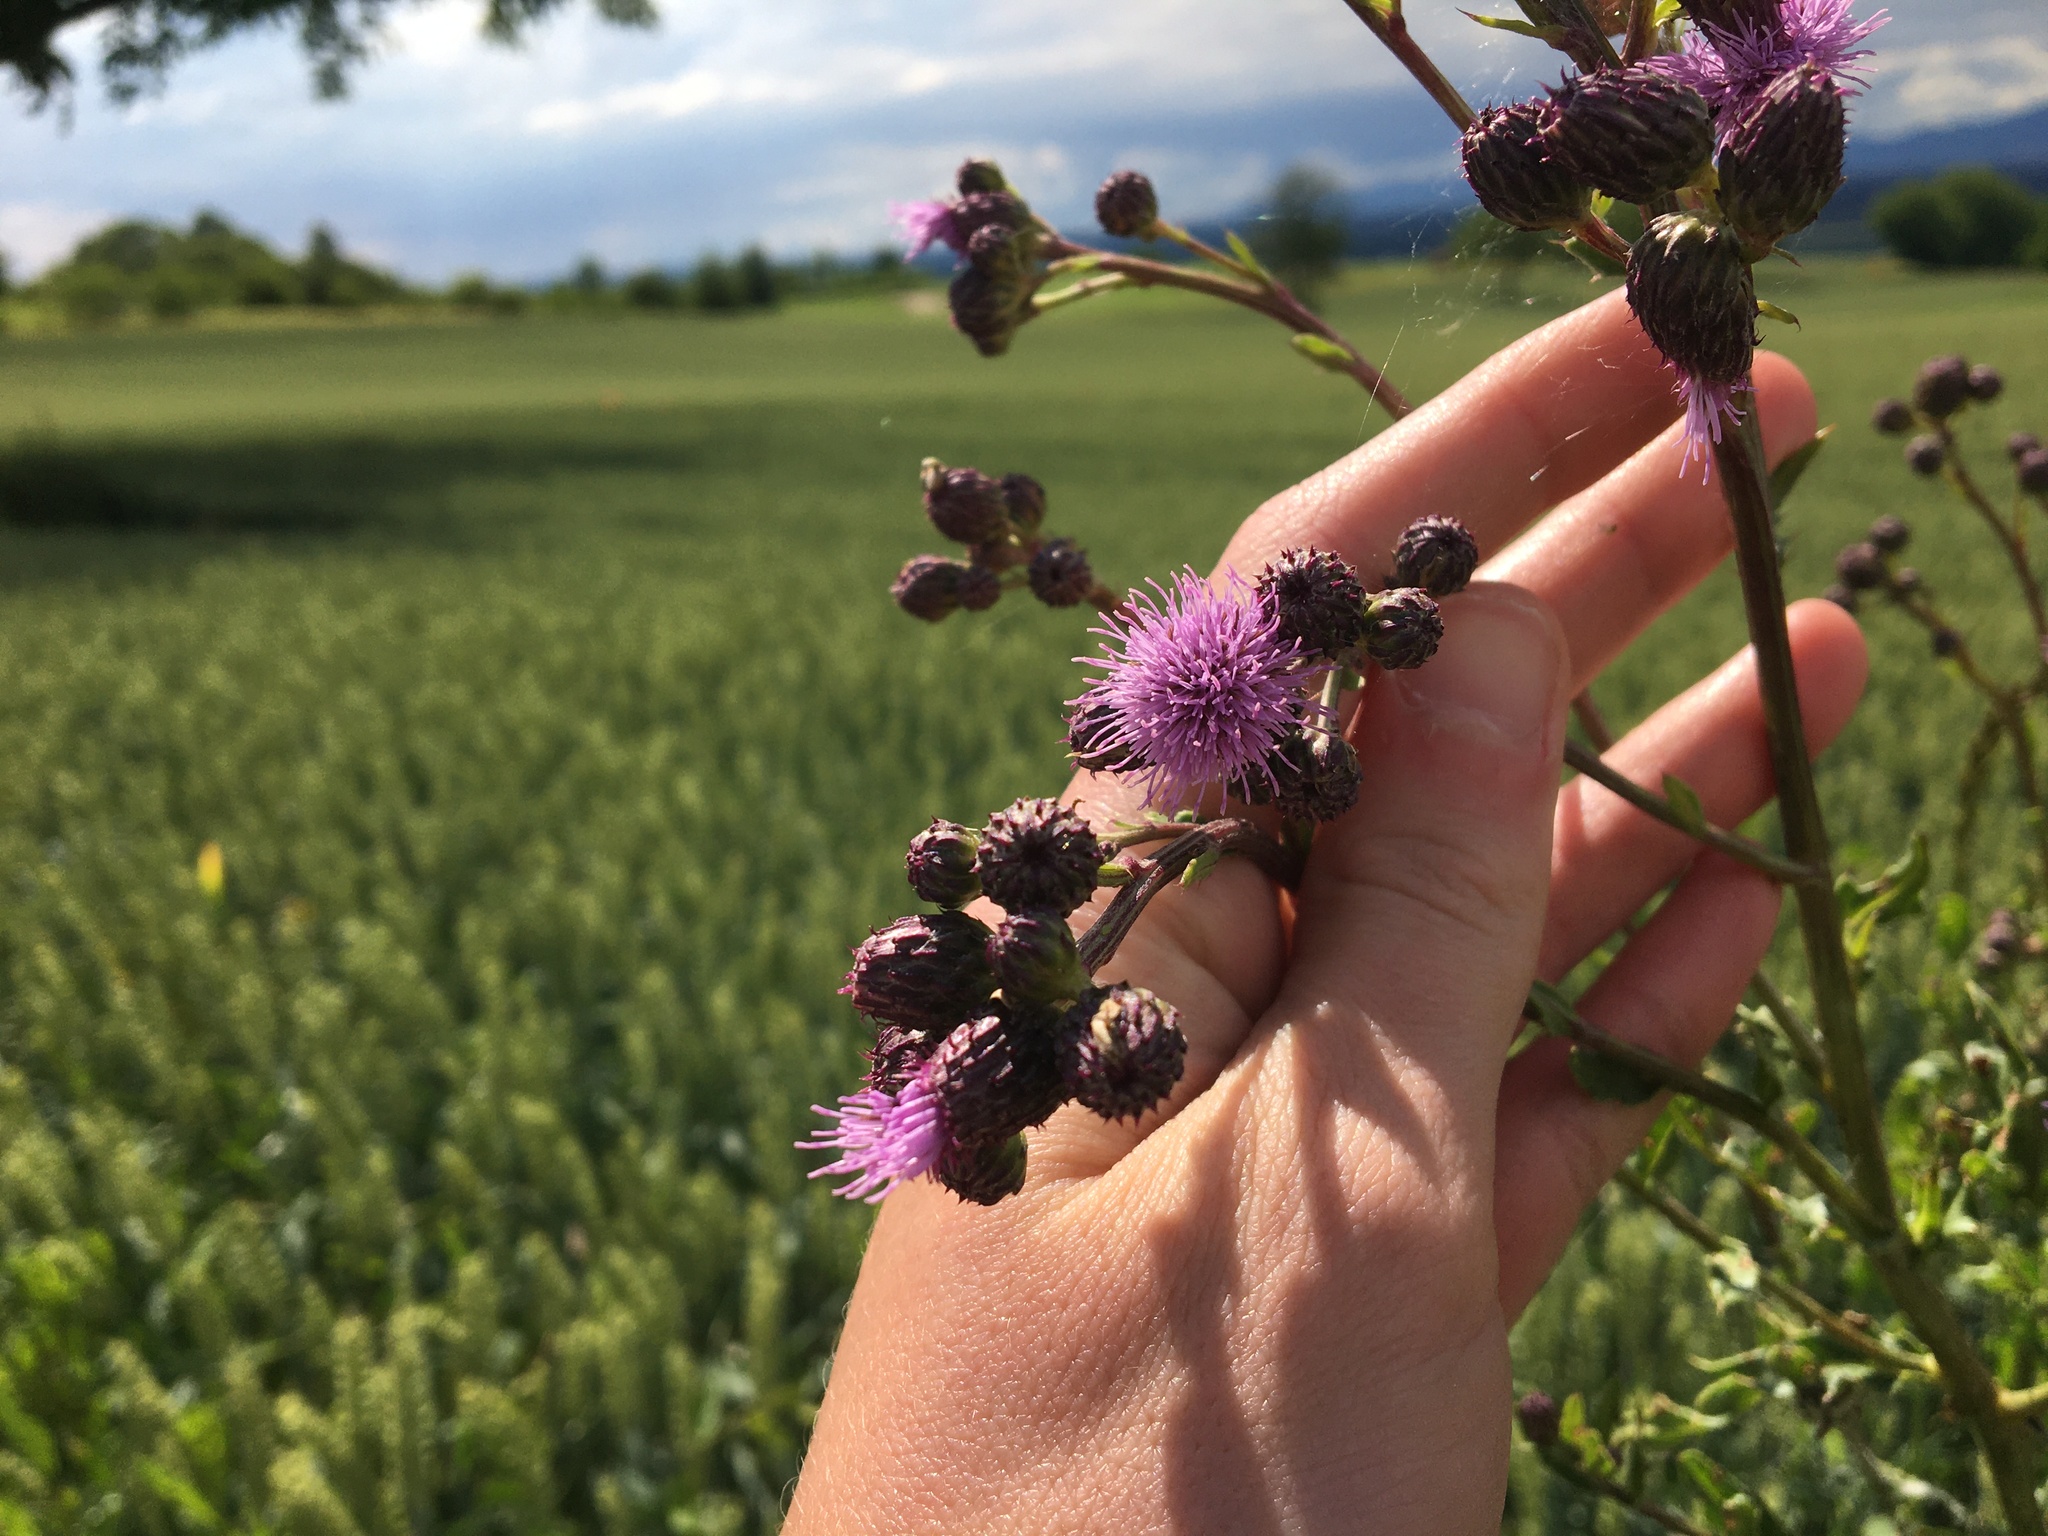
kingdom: Plantae
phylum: Tracheophyta
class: Magnoliopsida
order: Asterales
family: Asteraceae
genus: Cirsium
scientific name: Cirsium arvense
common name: Creeping thistle
